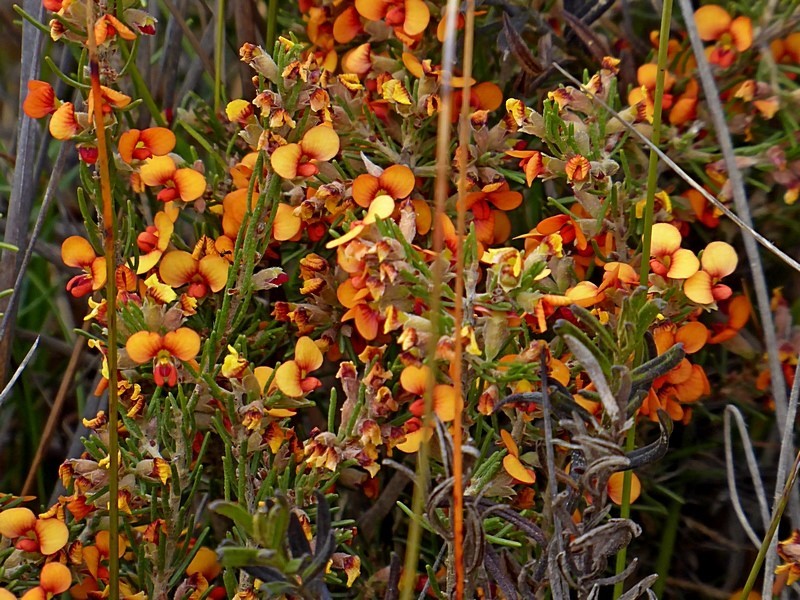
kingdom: Plantae
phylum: Tracheophyta
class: Magnoliopsida
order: Fabales
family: Fabaceae
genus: Dillwynia
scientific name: Dillwynia sericea
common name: Showy parrot-pea
